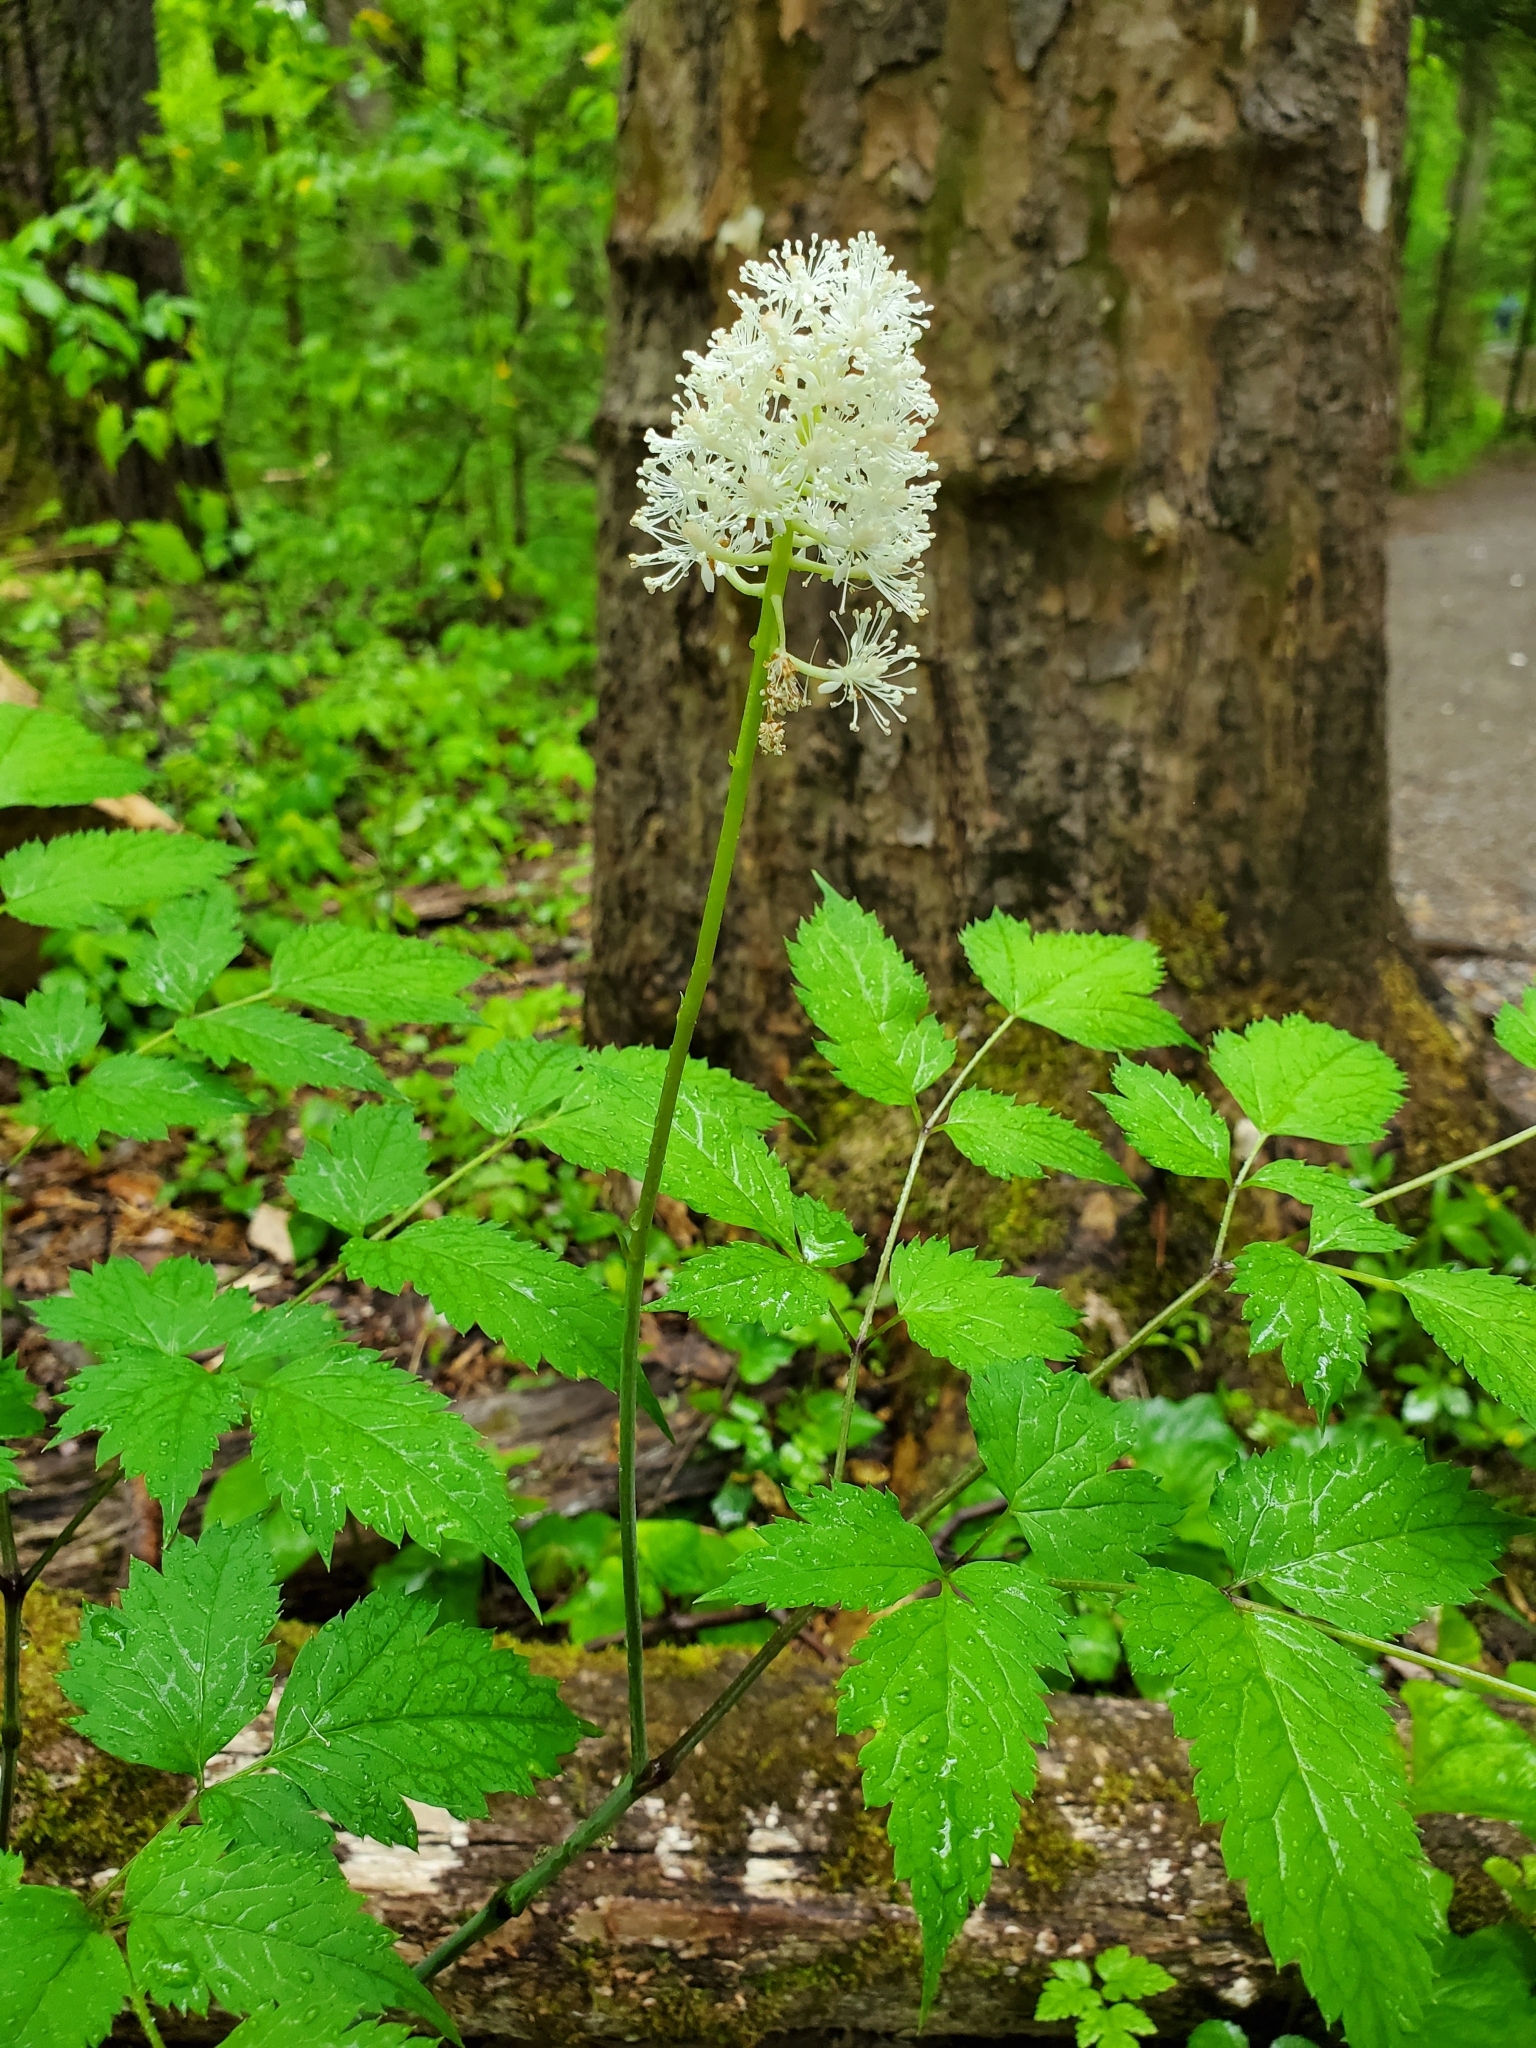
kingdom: Plantae
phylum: Tracheophyta
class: Magnoliopsida
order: Ranunculales
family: Ranunculaceae
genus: Actaea
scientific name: Actaea pachypoda
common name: Doll's-eyes
